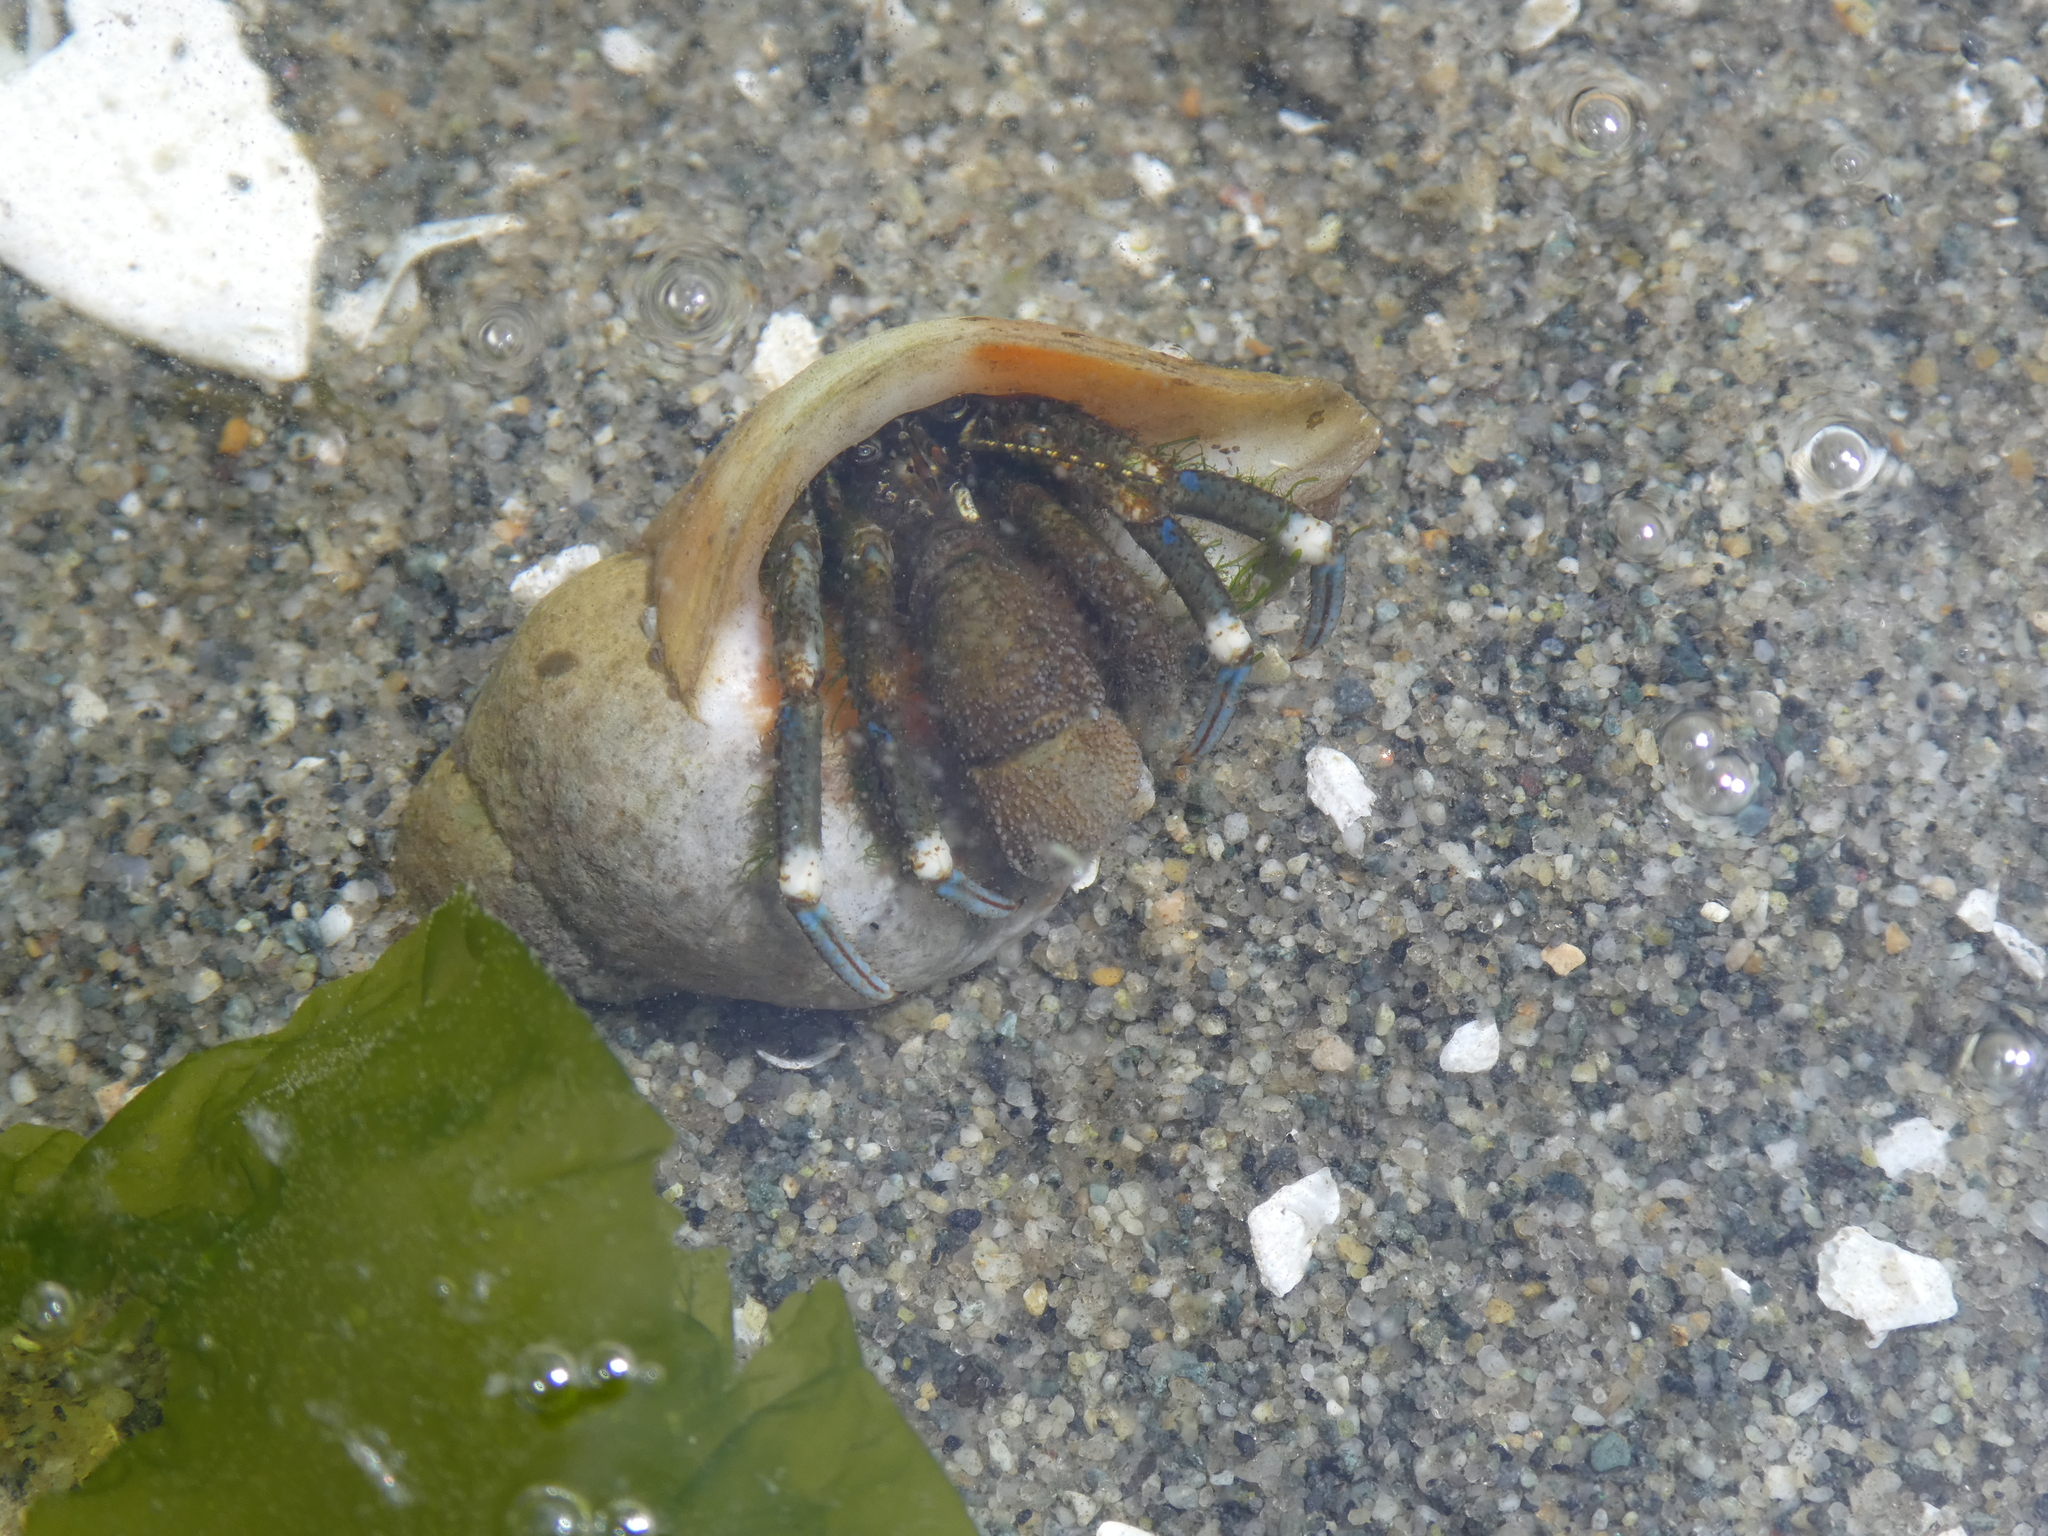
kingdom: Animalia
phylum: Arthropoda
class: Malacostraca
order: Decapoda
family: Paguridae
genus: Pagurus
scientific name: Pagurus hirsutiusculus
